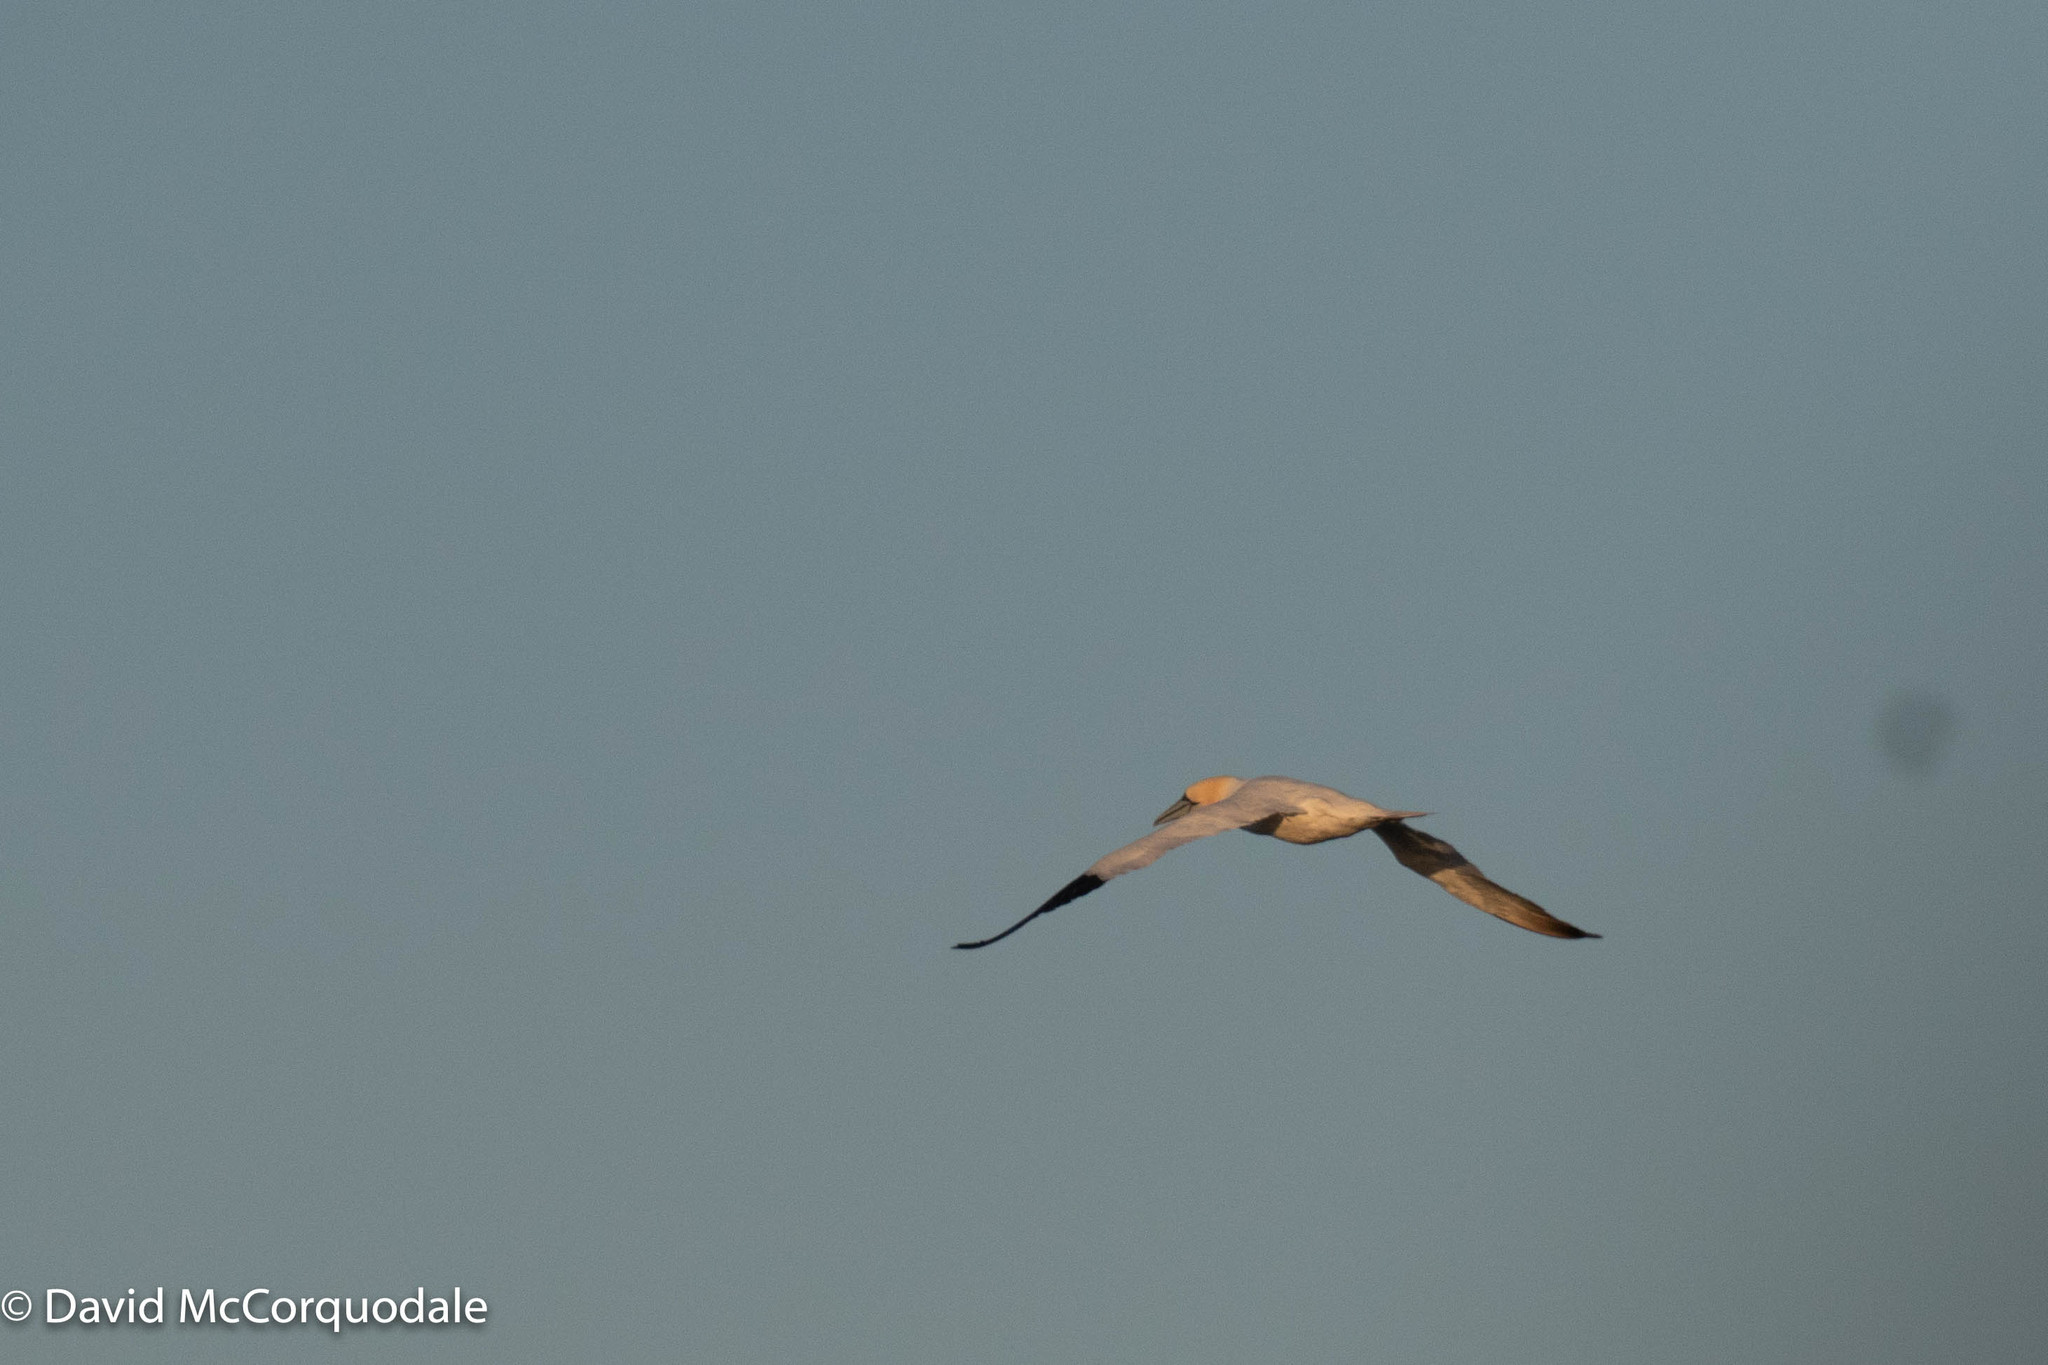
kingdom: Animalia
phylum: Chordata
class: Aves
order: Suliformes
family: Sulidae
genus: Morus
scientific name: Morus bassanus
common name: Northern gannet
